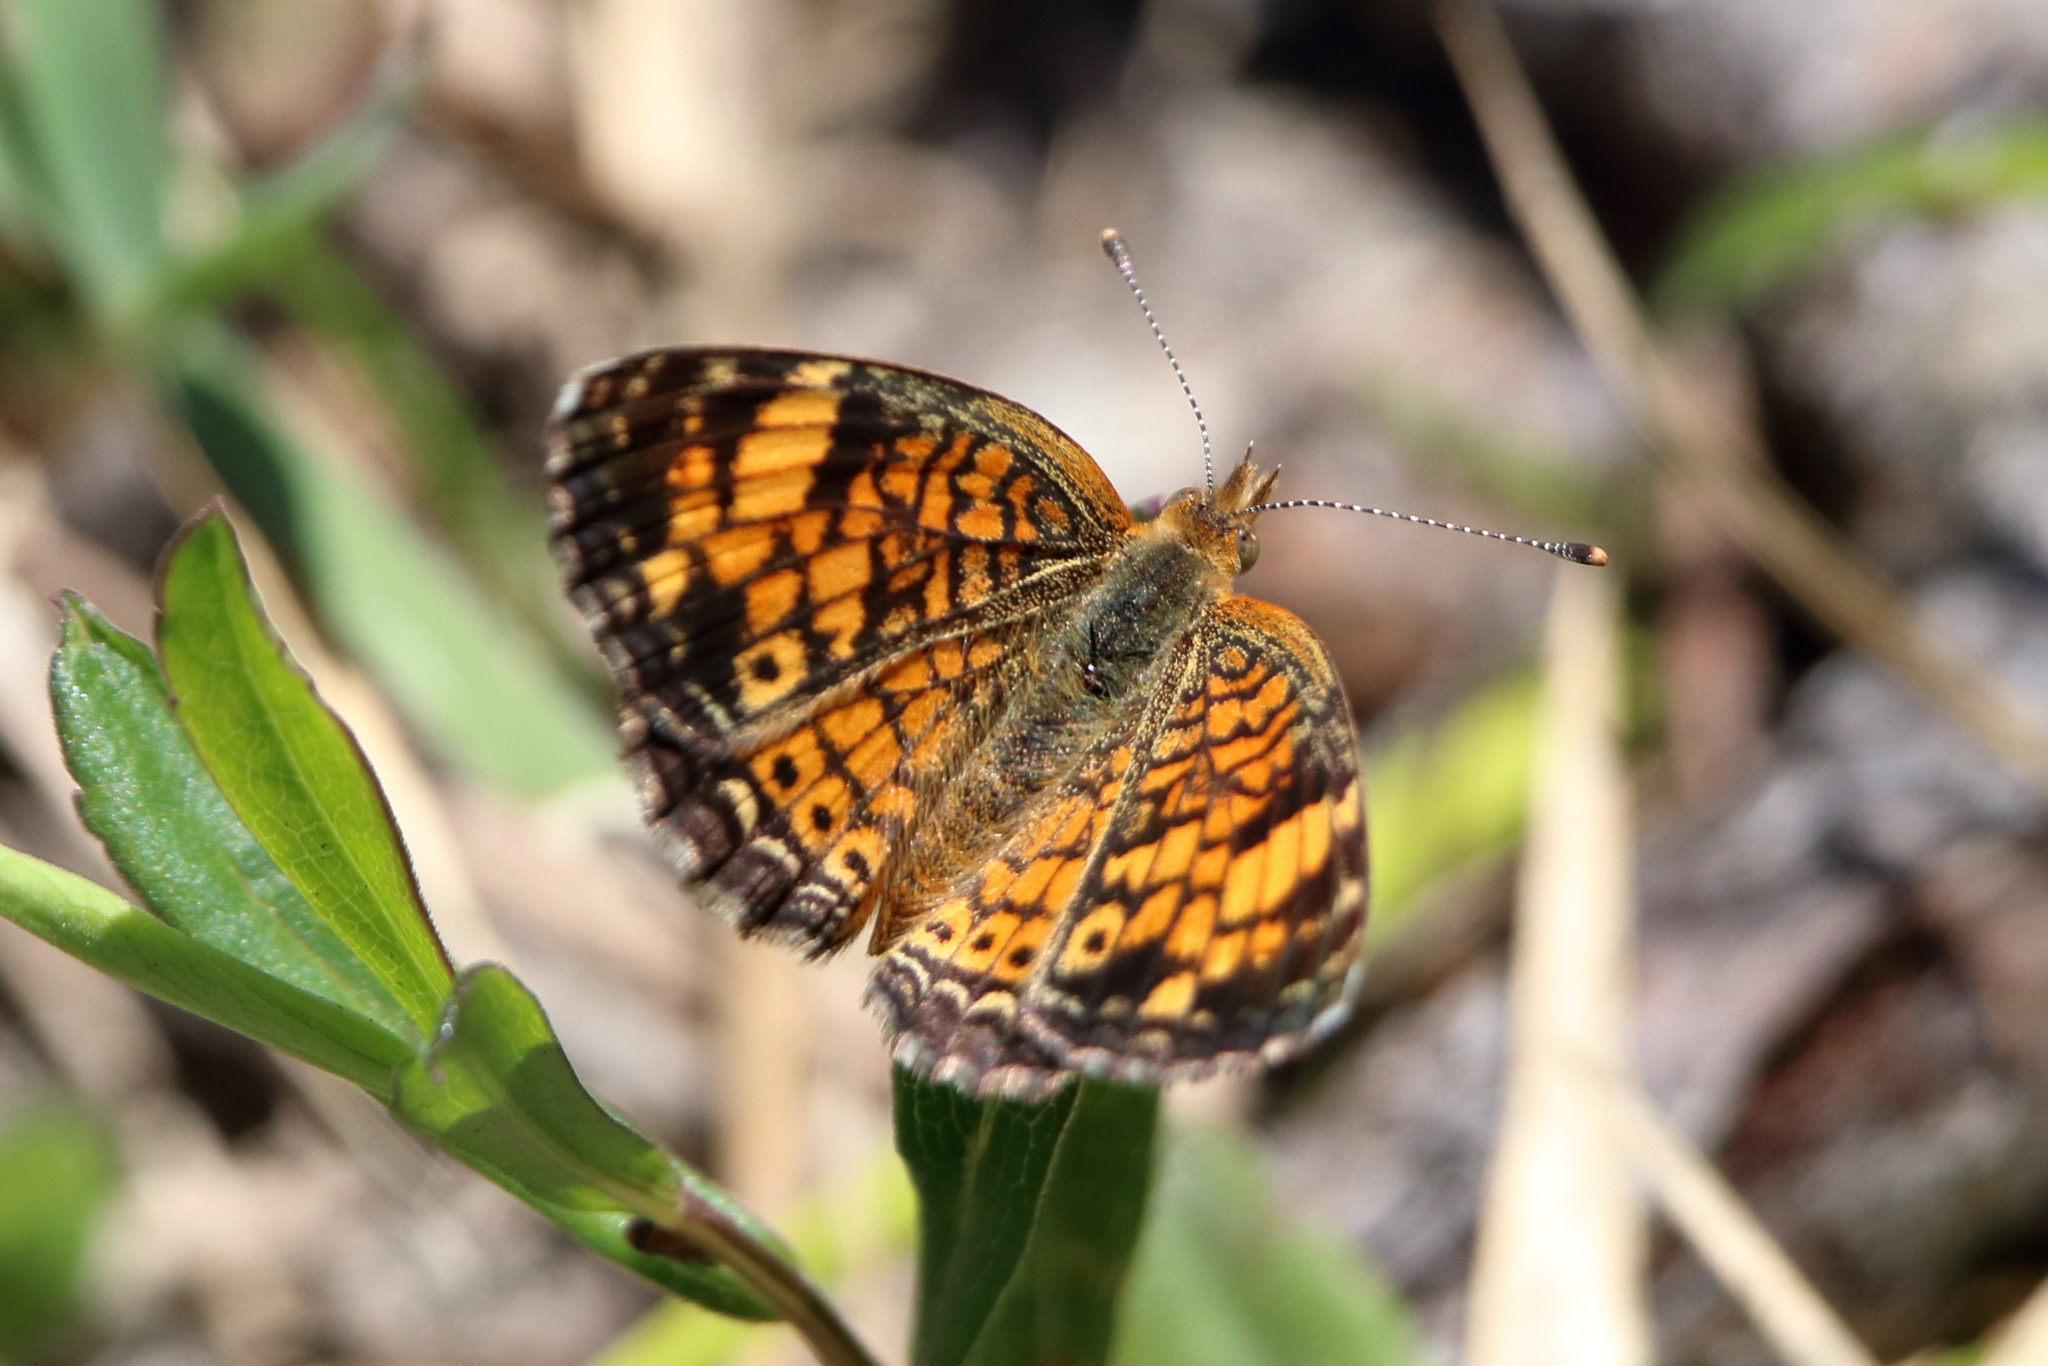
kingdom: Animalia
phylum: Arthropoda
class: Insecta
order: Lepidoptera
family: Nymphalidae
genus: Phyciodes
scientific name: Phyciodes tharos
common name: Pearl crescent
